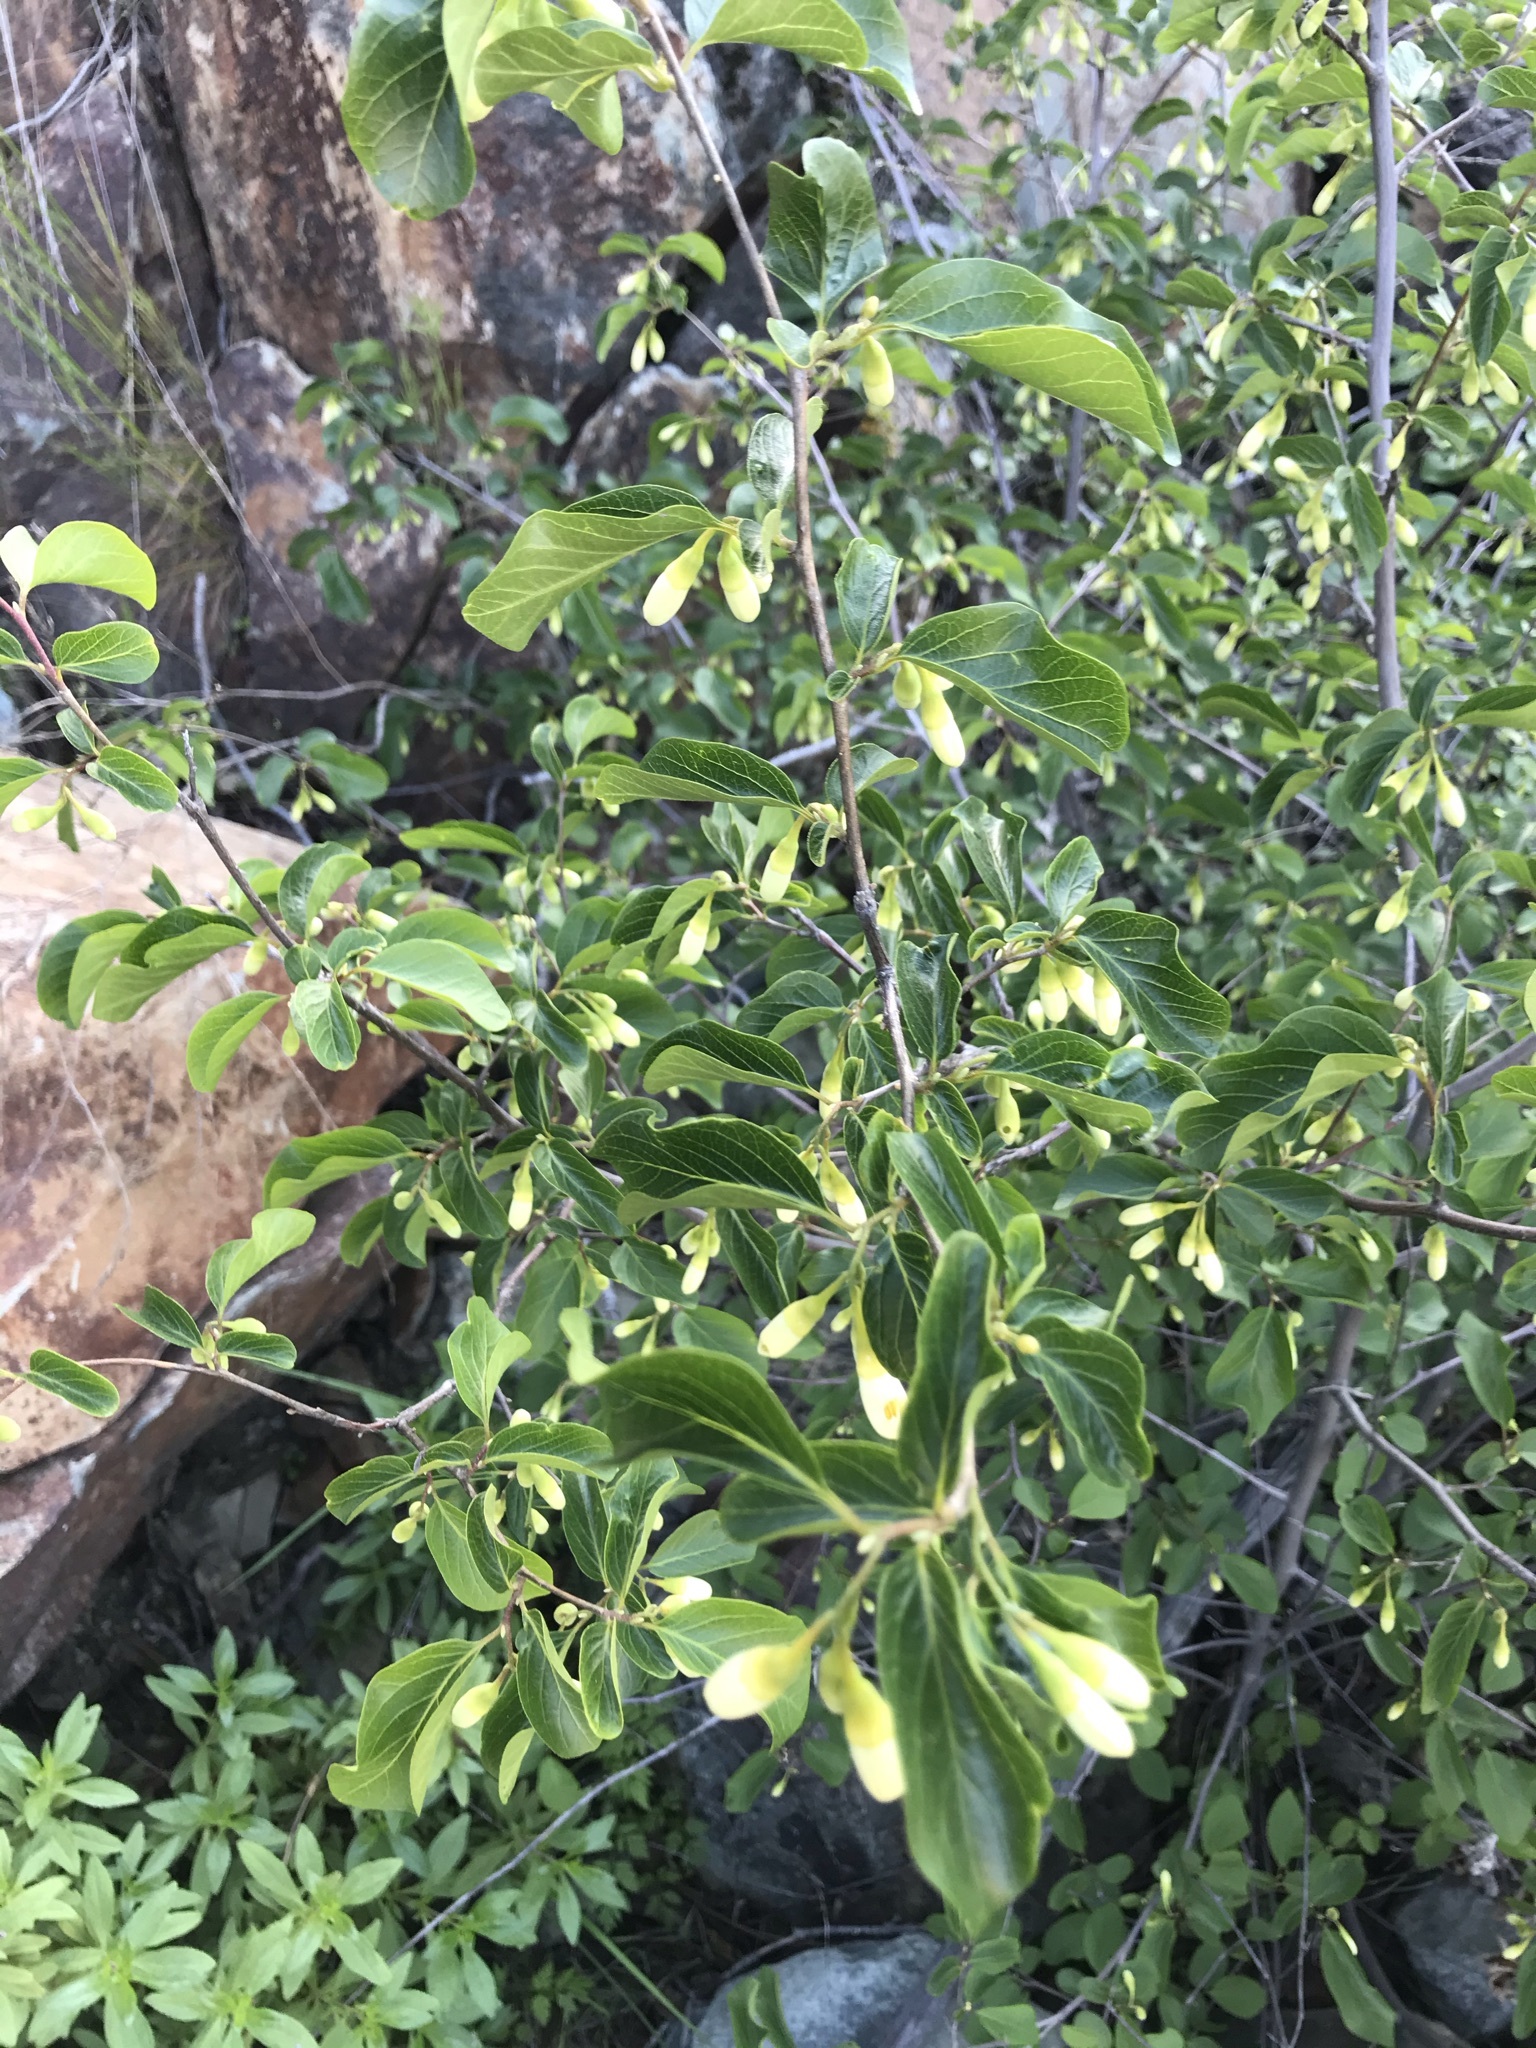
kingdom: Plantae
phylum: Tracheophyta
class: Magnoliopsida
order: Ericales
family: Styracaceae
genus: Styrax
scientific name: Styrax redivivus
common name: California styrax
